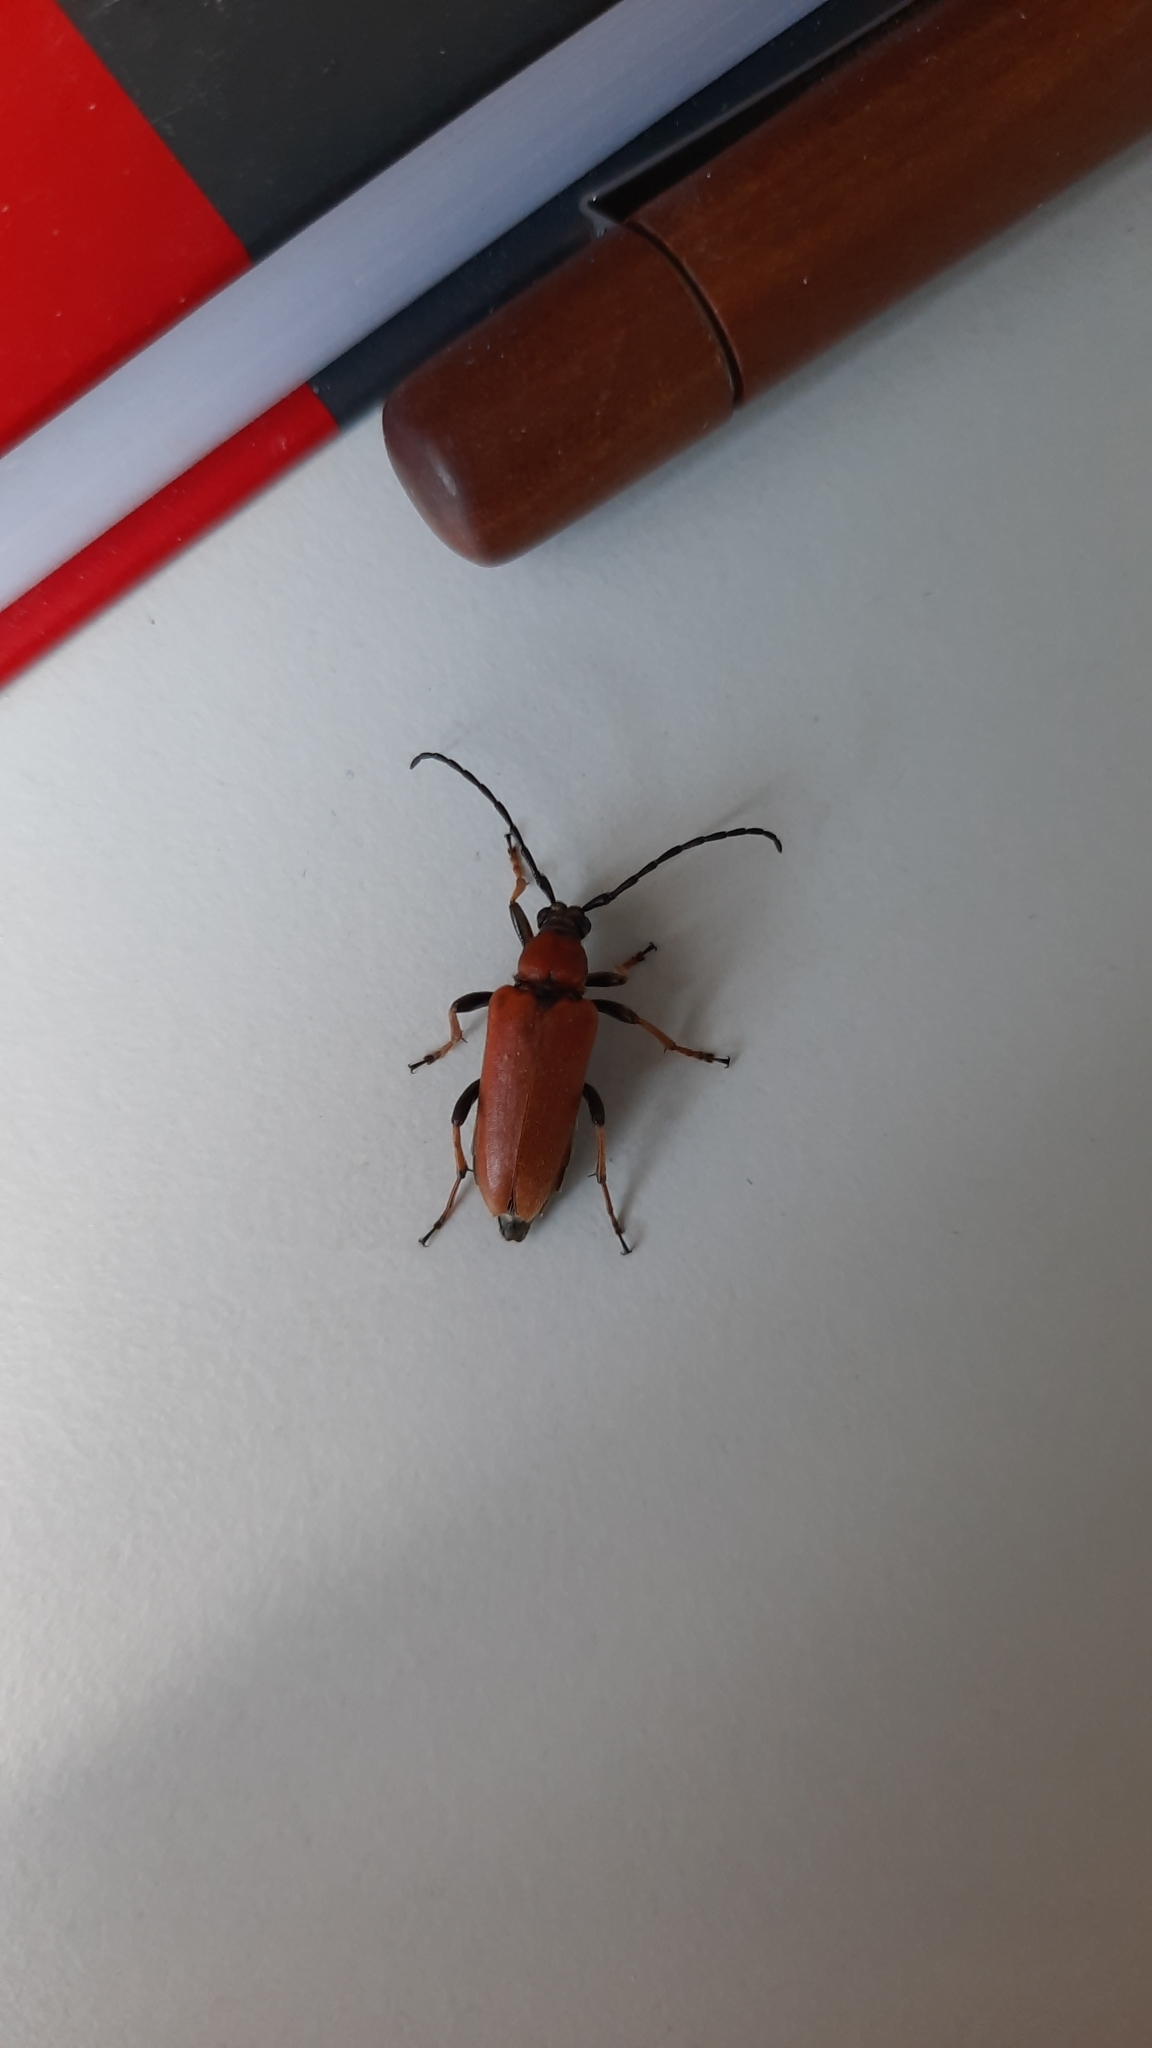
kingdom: Animalia
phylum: Arthropoda
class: Insecta
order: Coleoptera
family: Cerambycidae
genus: Stictoleptura
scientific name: Stictoleptura rubra
